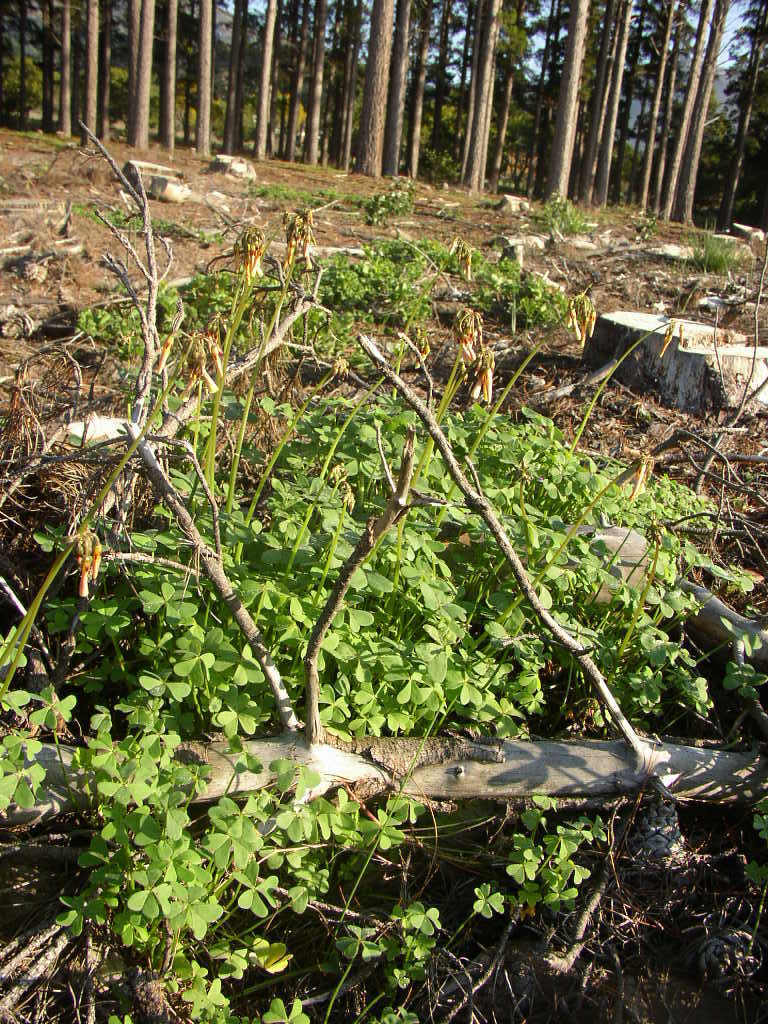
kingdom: Plantae
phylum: Tracheophyta
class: Magnoliopsida
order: Oxalidales
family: Oxalidaceae
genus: Oxalis
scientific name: Oxalis pes-caprae
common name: Bermuda-buttercup
